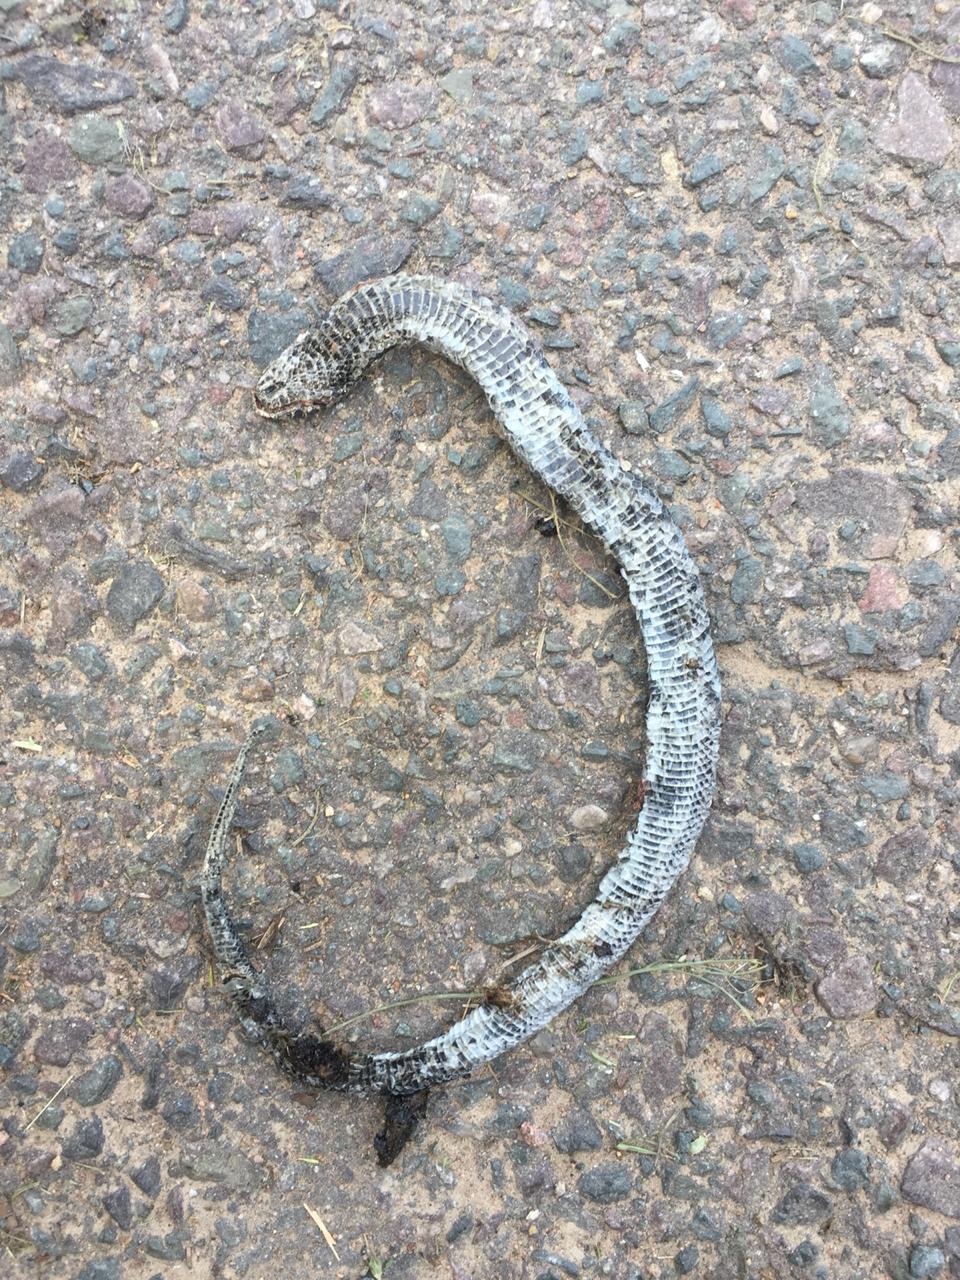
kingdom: Animalia
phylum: Chordata
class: Squamata
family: Atractaspididae
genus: Macrelaps
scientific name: Macrelaps microlepidotus
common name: Kwazulu-natal black snake
